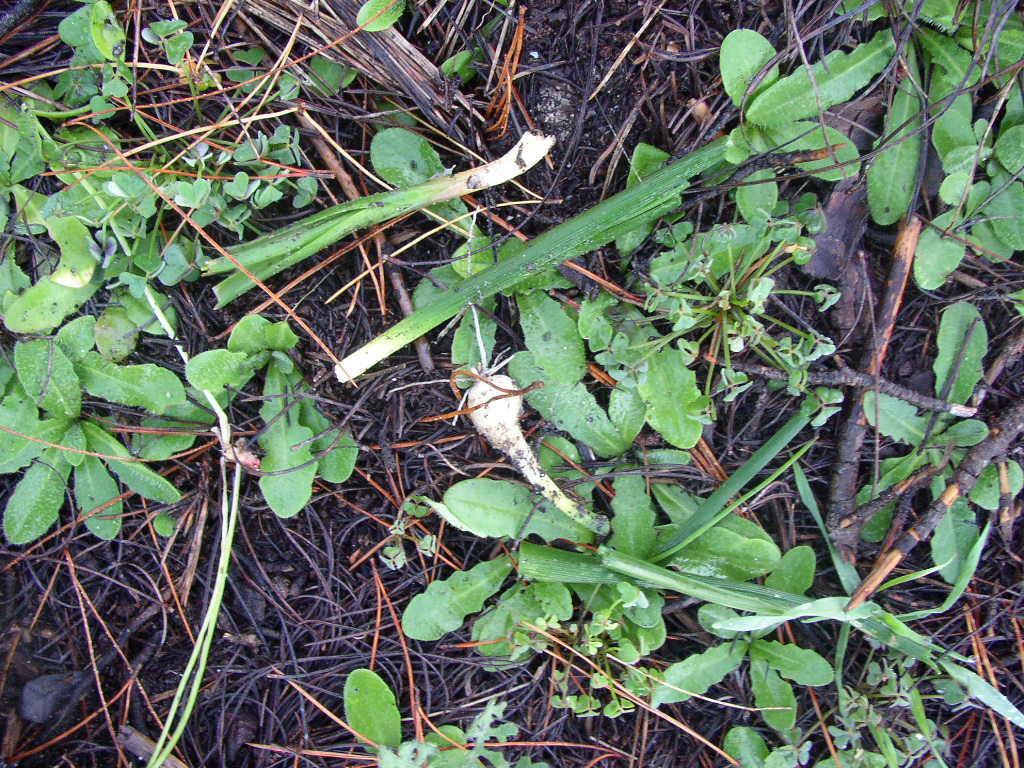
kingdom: Plantae
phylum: Tracheophyta
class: Liliopsida
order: Asparagales
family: Asparagaceae
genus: Albuca
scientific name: Albuca cooperi
